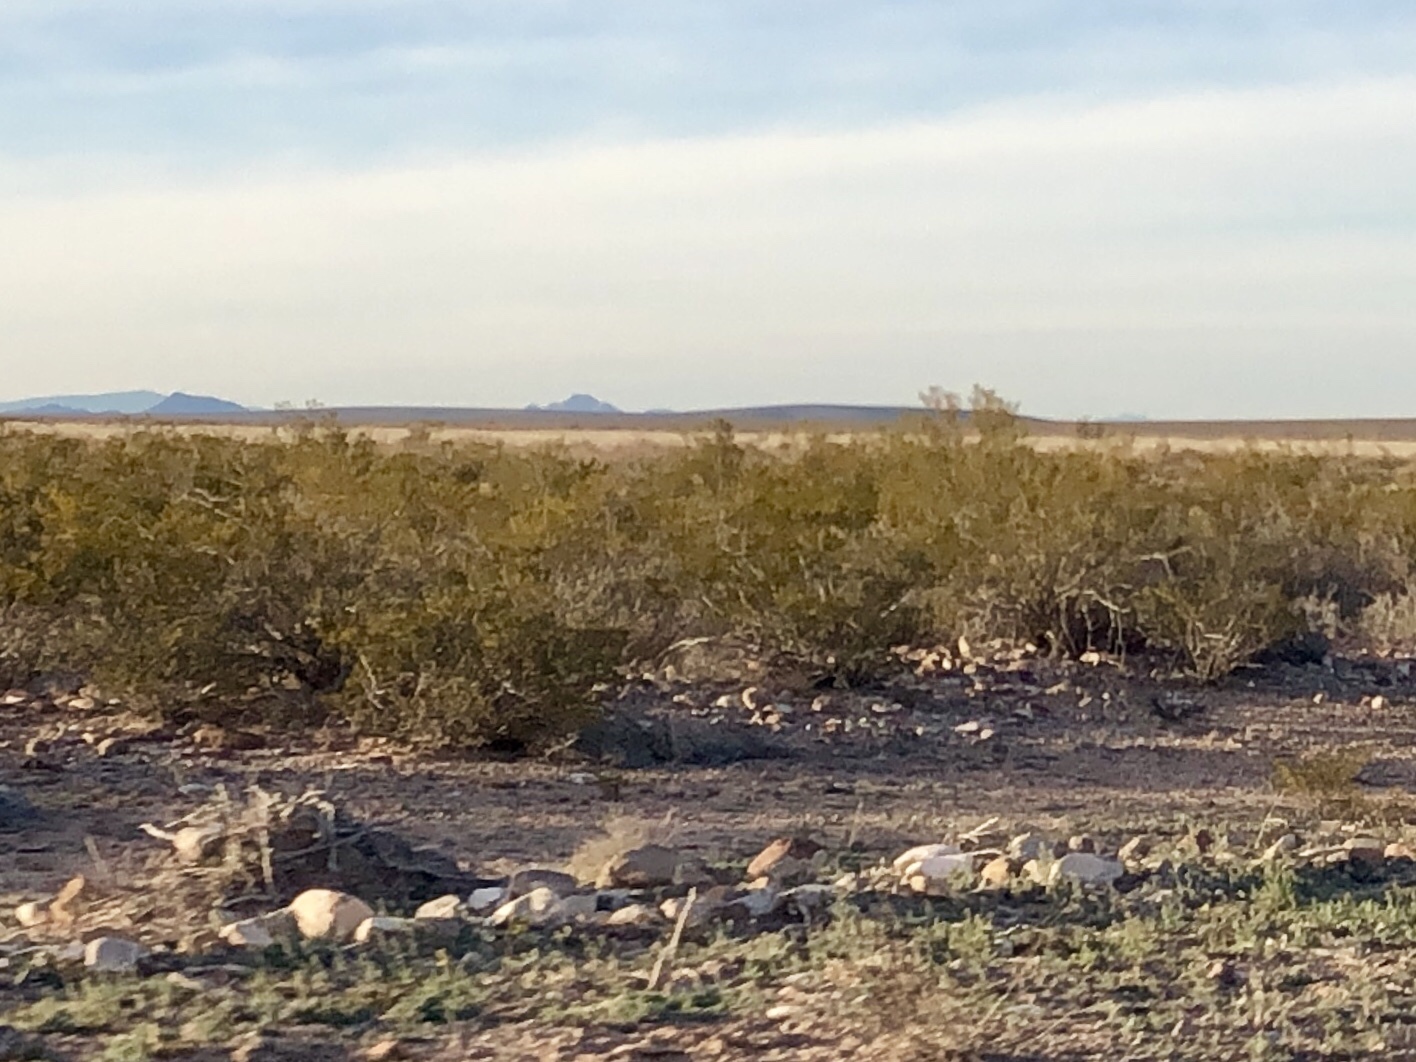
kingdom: Plantae
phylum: Tracheophyta
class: Magnoliopsida
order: Zygophyllales
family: Zygophyllaceae
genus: Larrea
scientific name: Larrea tridentata
